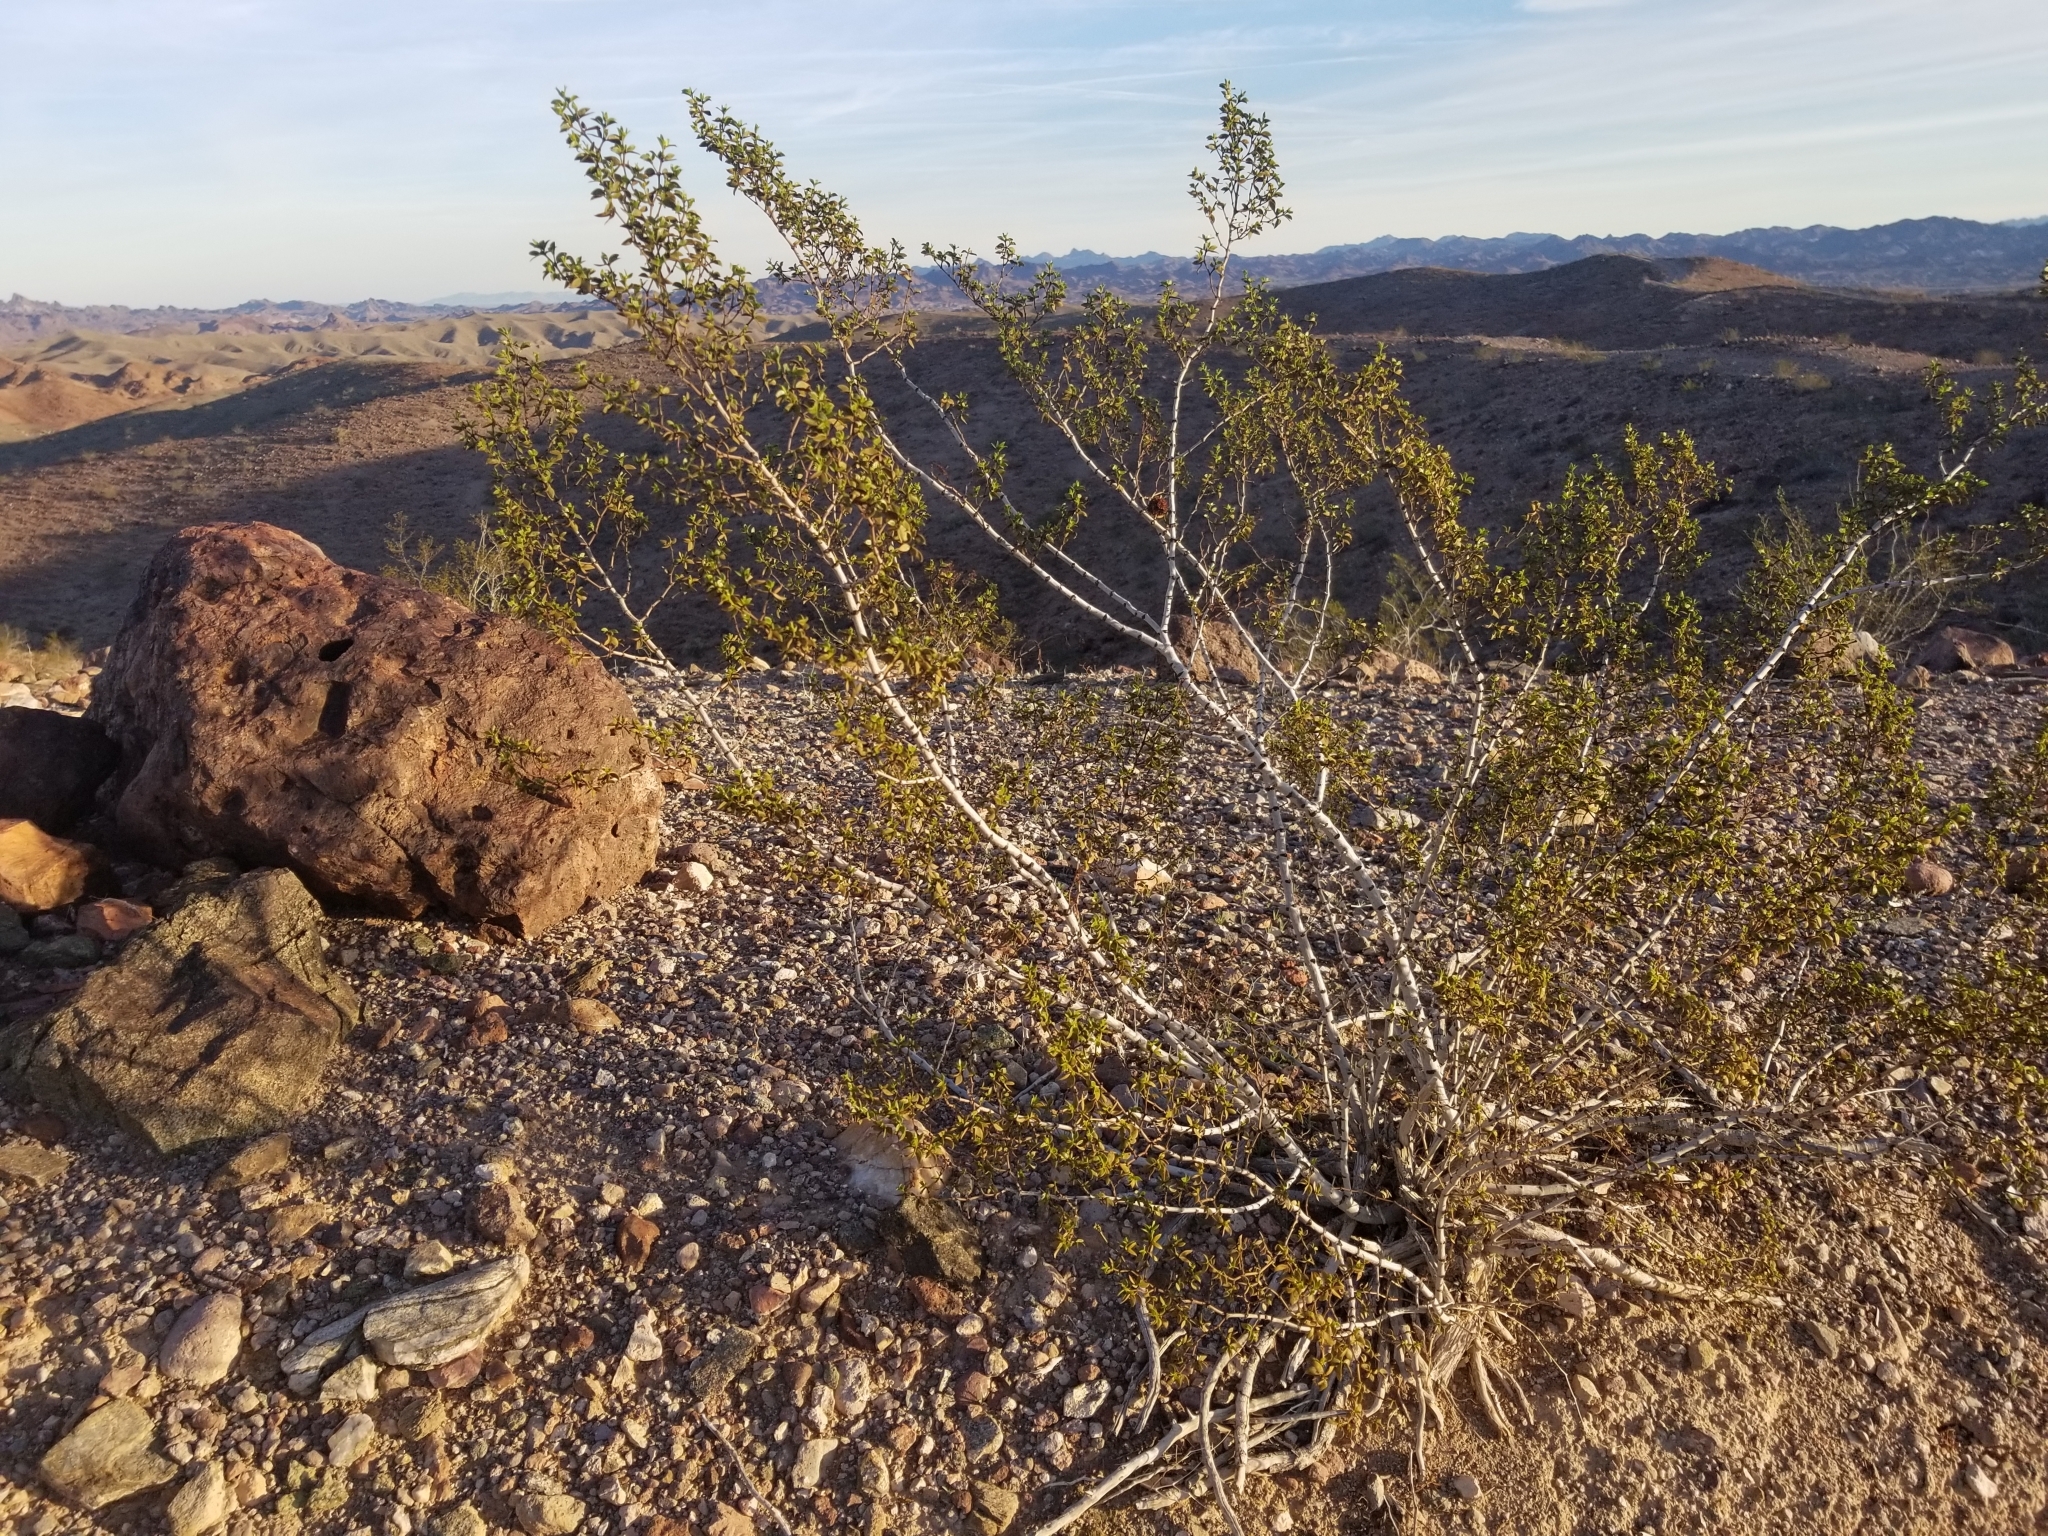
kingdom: Plantae
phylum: Tracheophyta
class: Magnoliopsida
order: Zygophyllales
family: Zygophyllaceae
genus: Larrea
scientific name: Larrea tridentata
